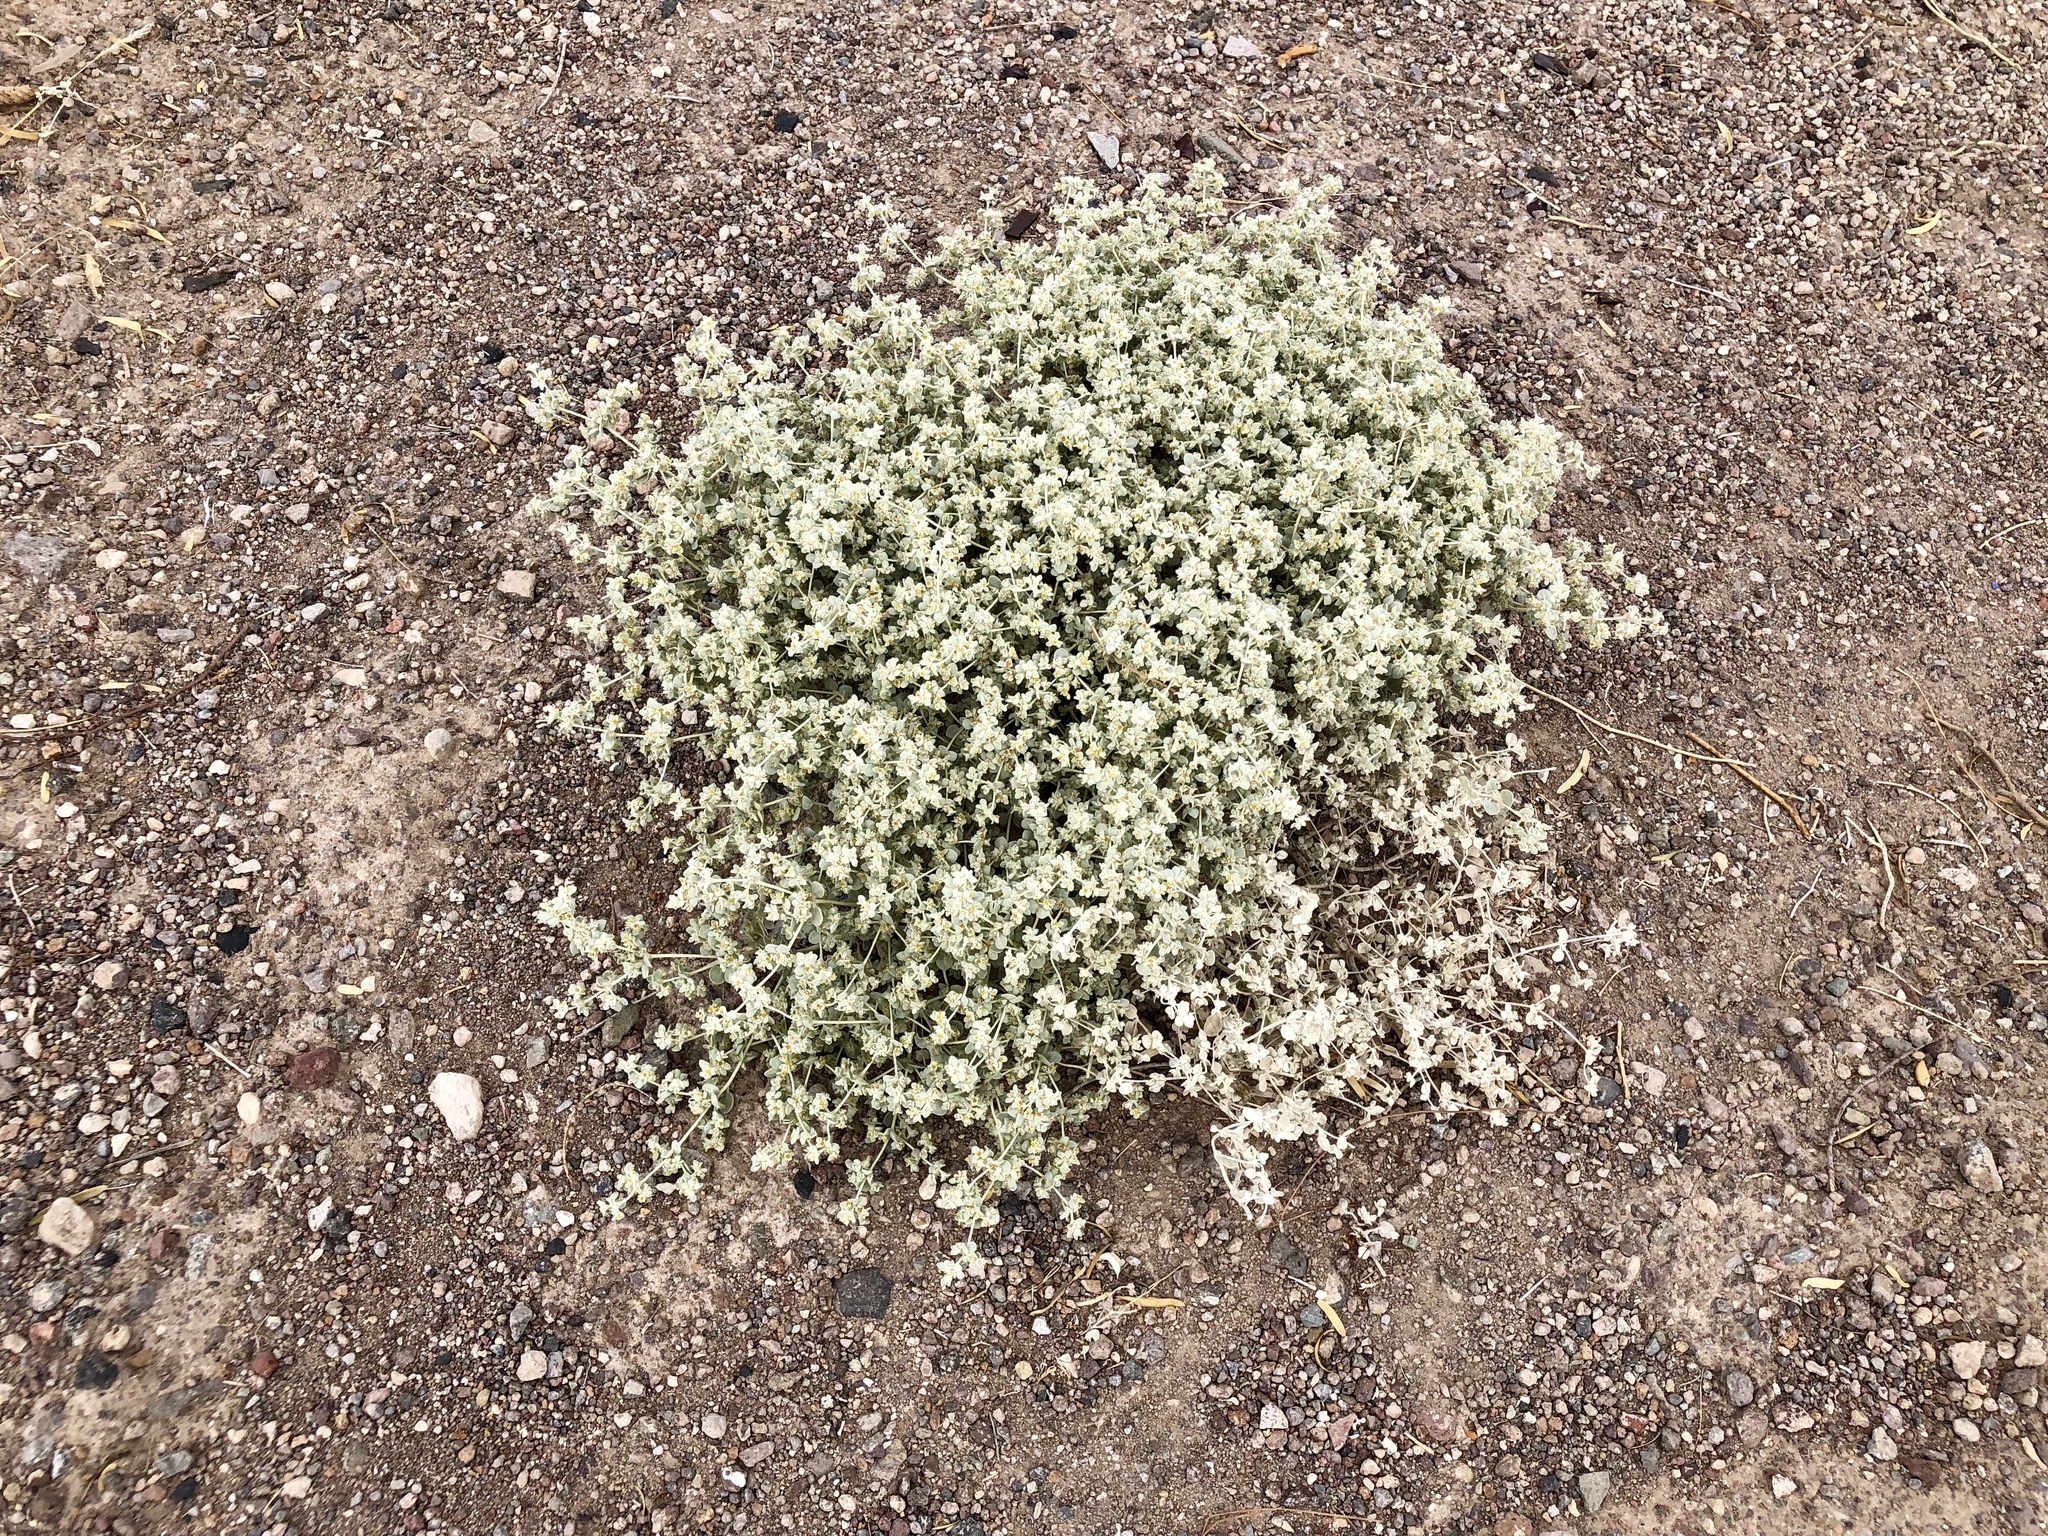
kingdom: Plantae
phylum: Tracheophyta
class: Magnoliopsida
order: Caryophyllales
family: Amaranthaceae
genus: Tidestromia
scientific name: Tidestromia suffruticosa
